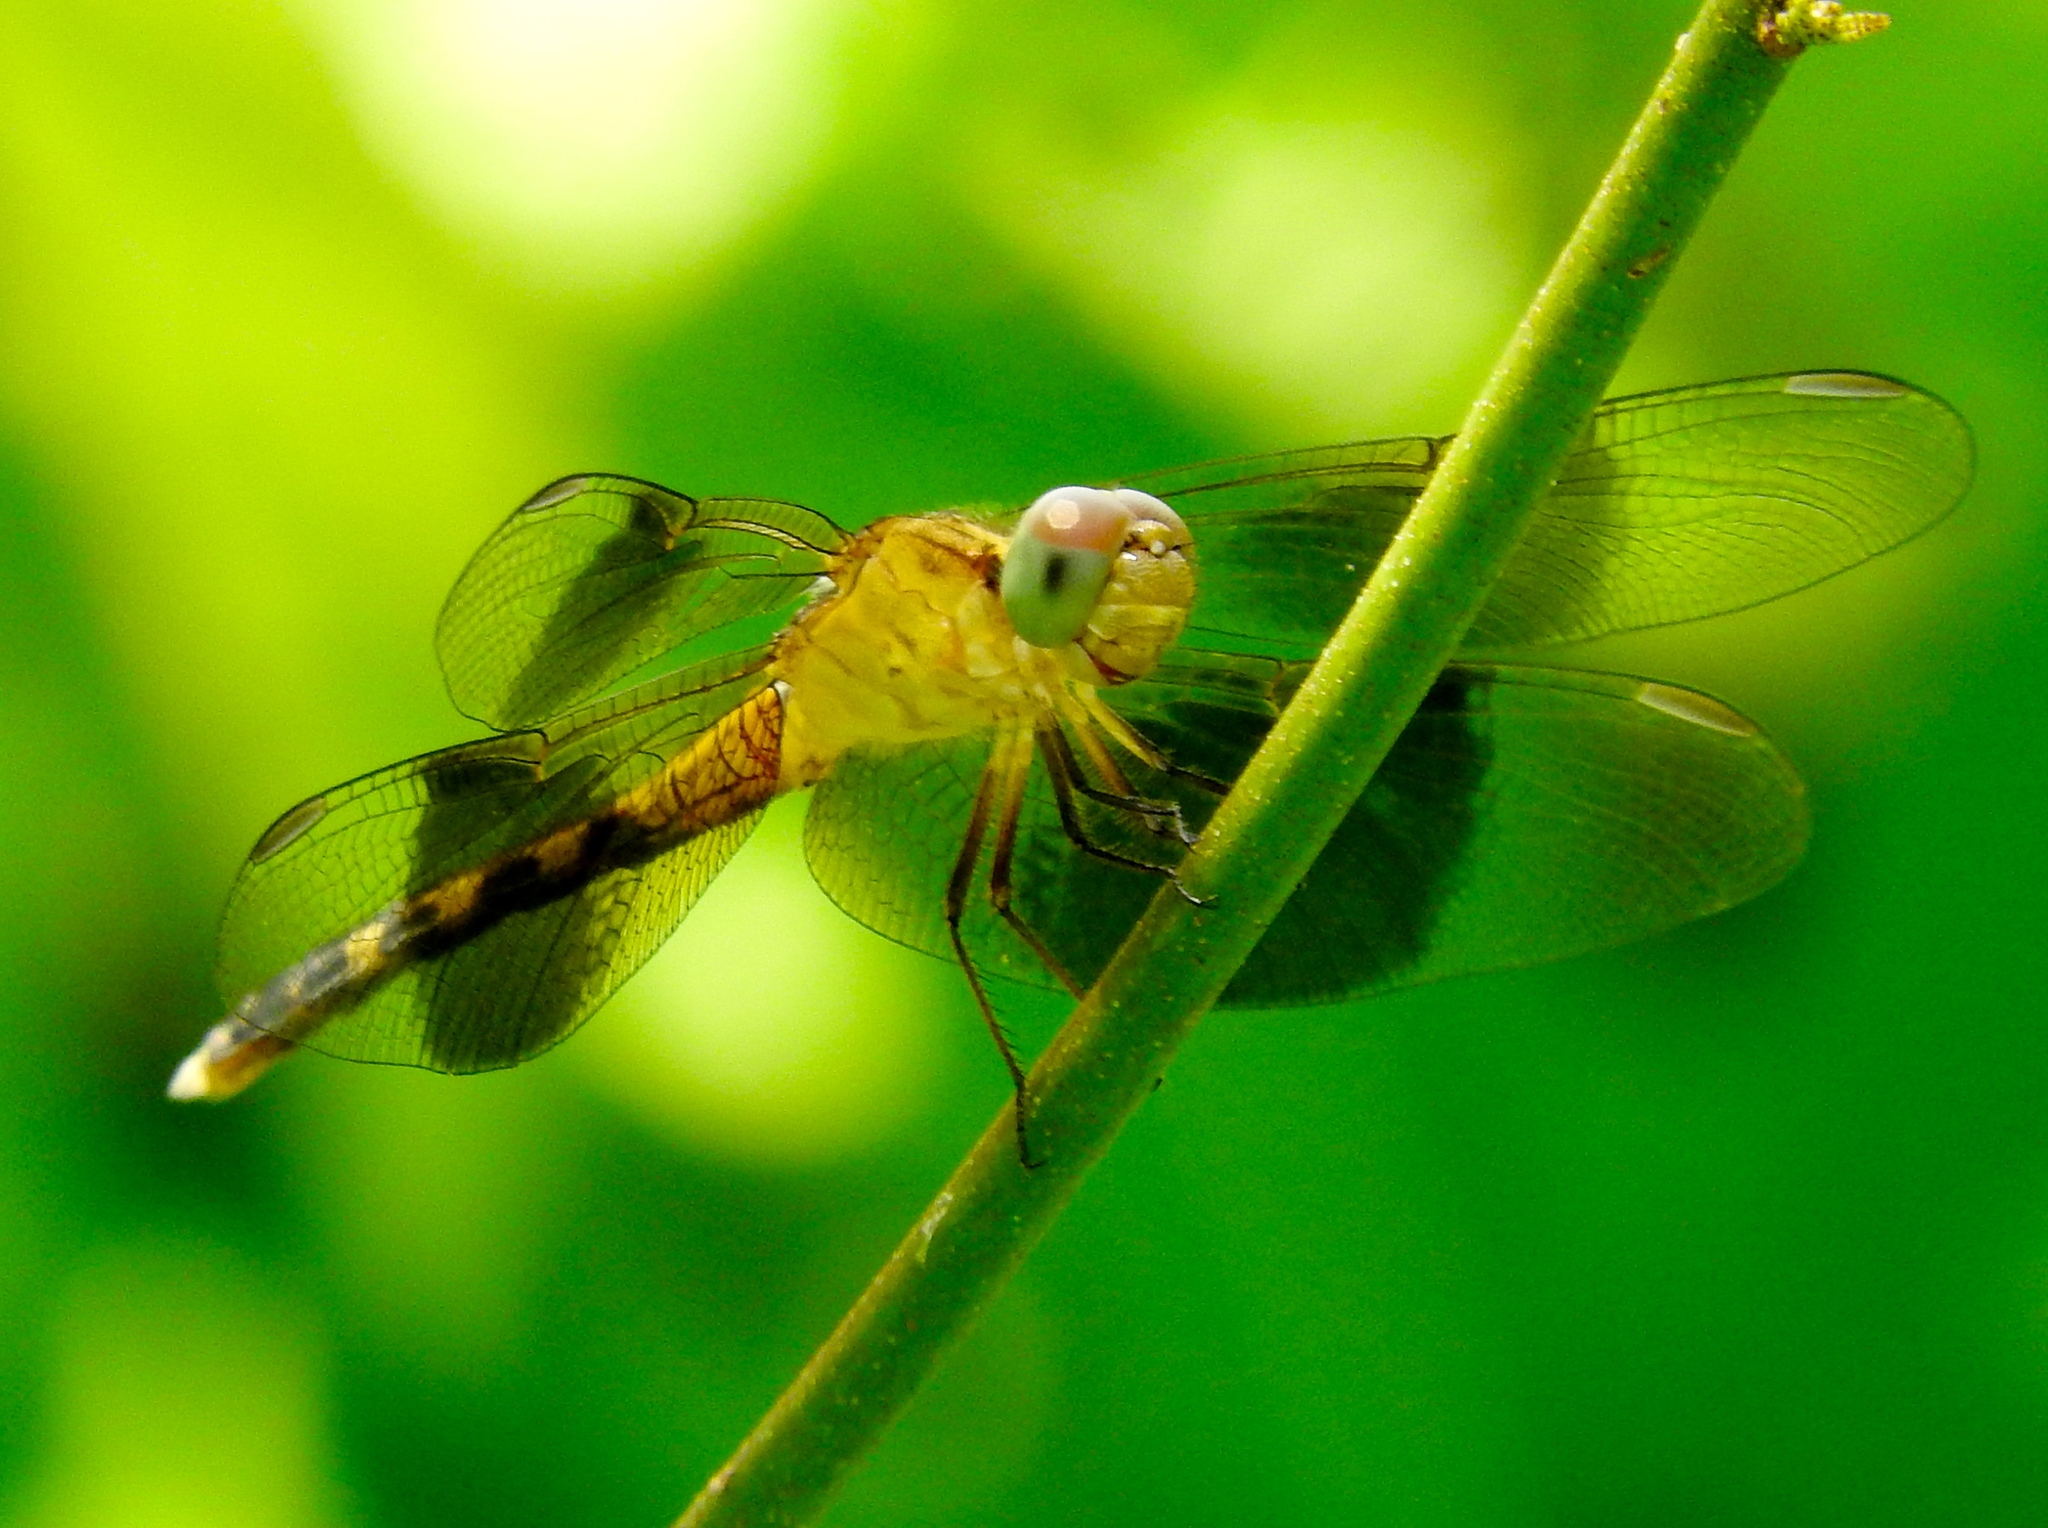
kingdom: Animalia
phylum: Arthropoda
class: Insecta
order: Odonata
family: Libellulidae
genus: Erythrodiplax
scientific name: Erythrodiplax funerea
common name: Black-winged dragonlet
